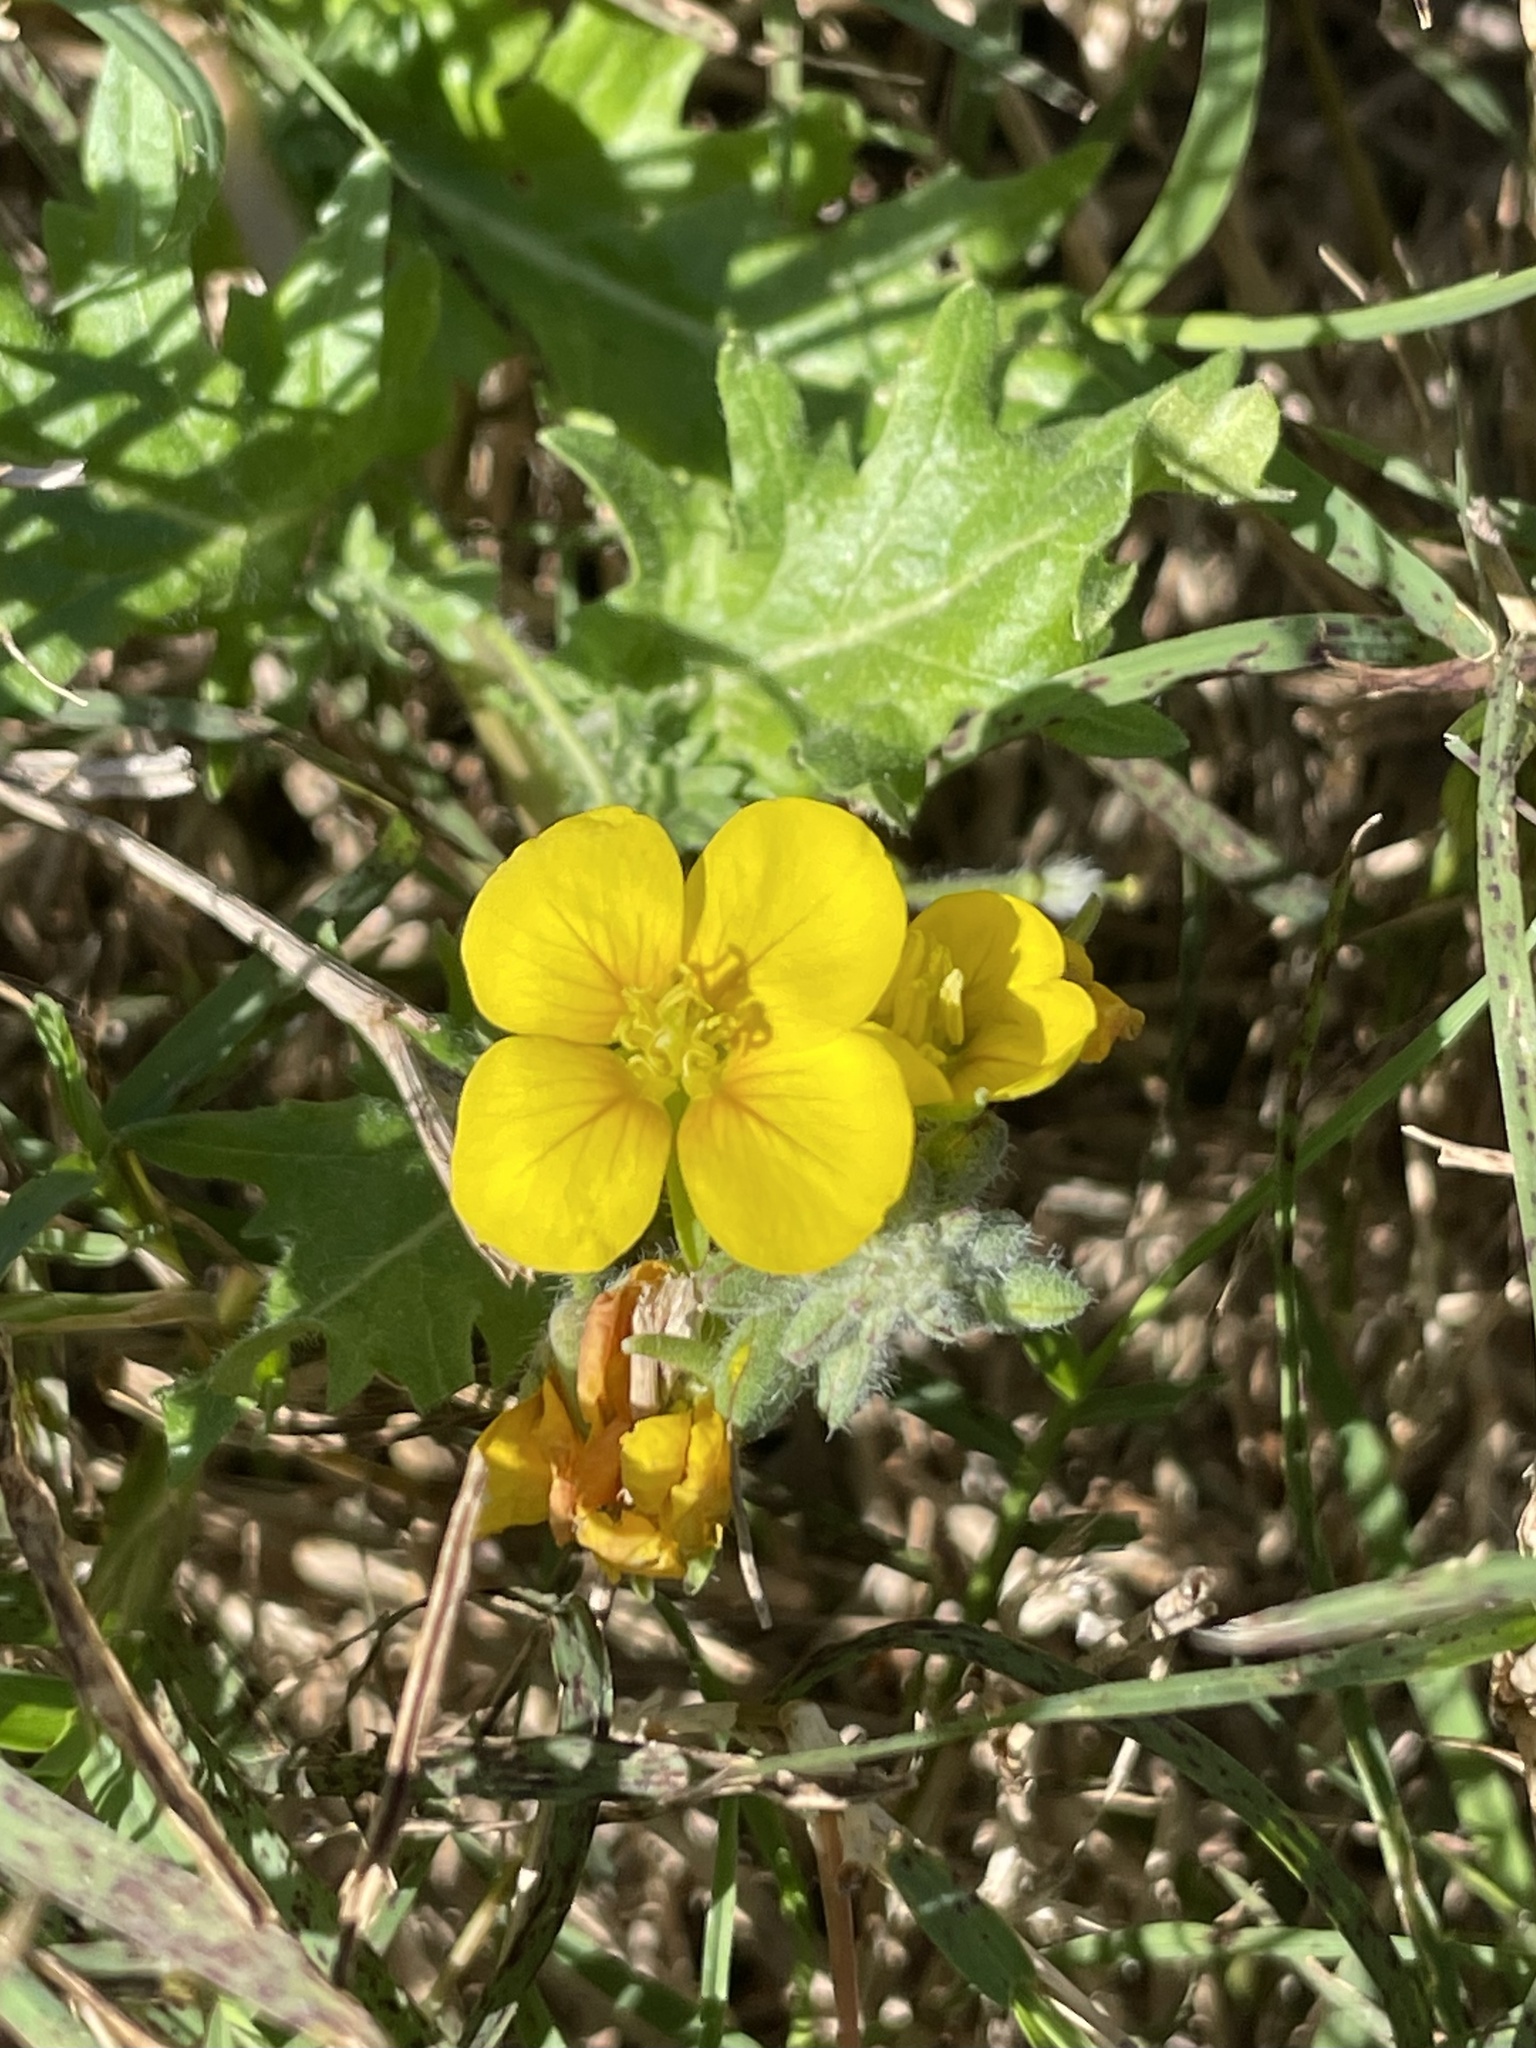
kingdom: Plantae
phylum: Tracheophyta
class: Magnoliopsida
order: Brassicales
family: Brassicaceae
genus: Paysonia
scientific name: Paysonia lasiocarpa
